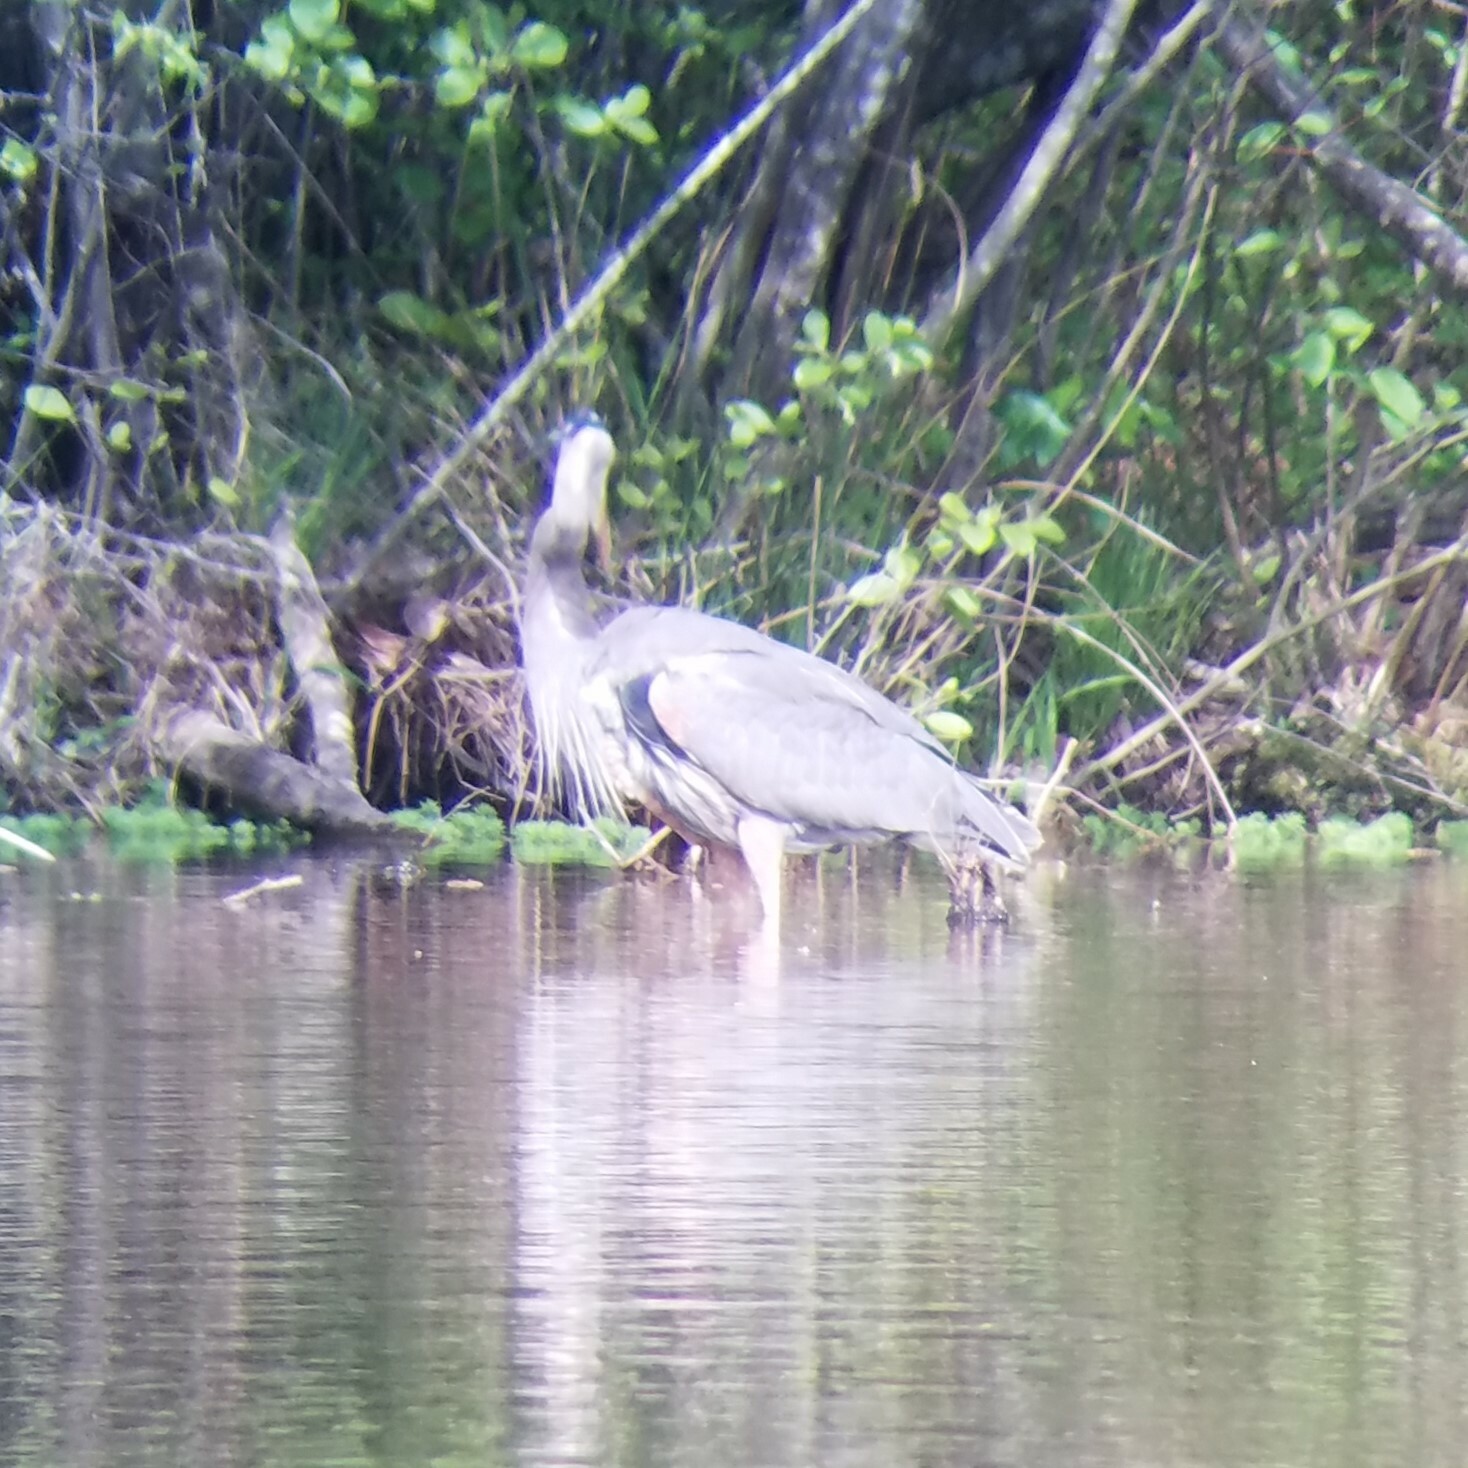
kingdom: Animalia
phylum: Chordata
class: Aves
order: Pelecaniformes
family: Ardeidae
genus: Ardea
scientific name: Ardea herodias
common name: Great blue heron
